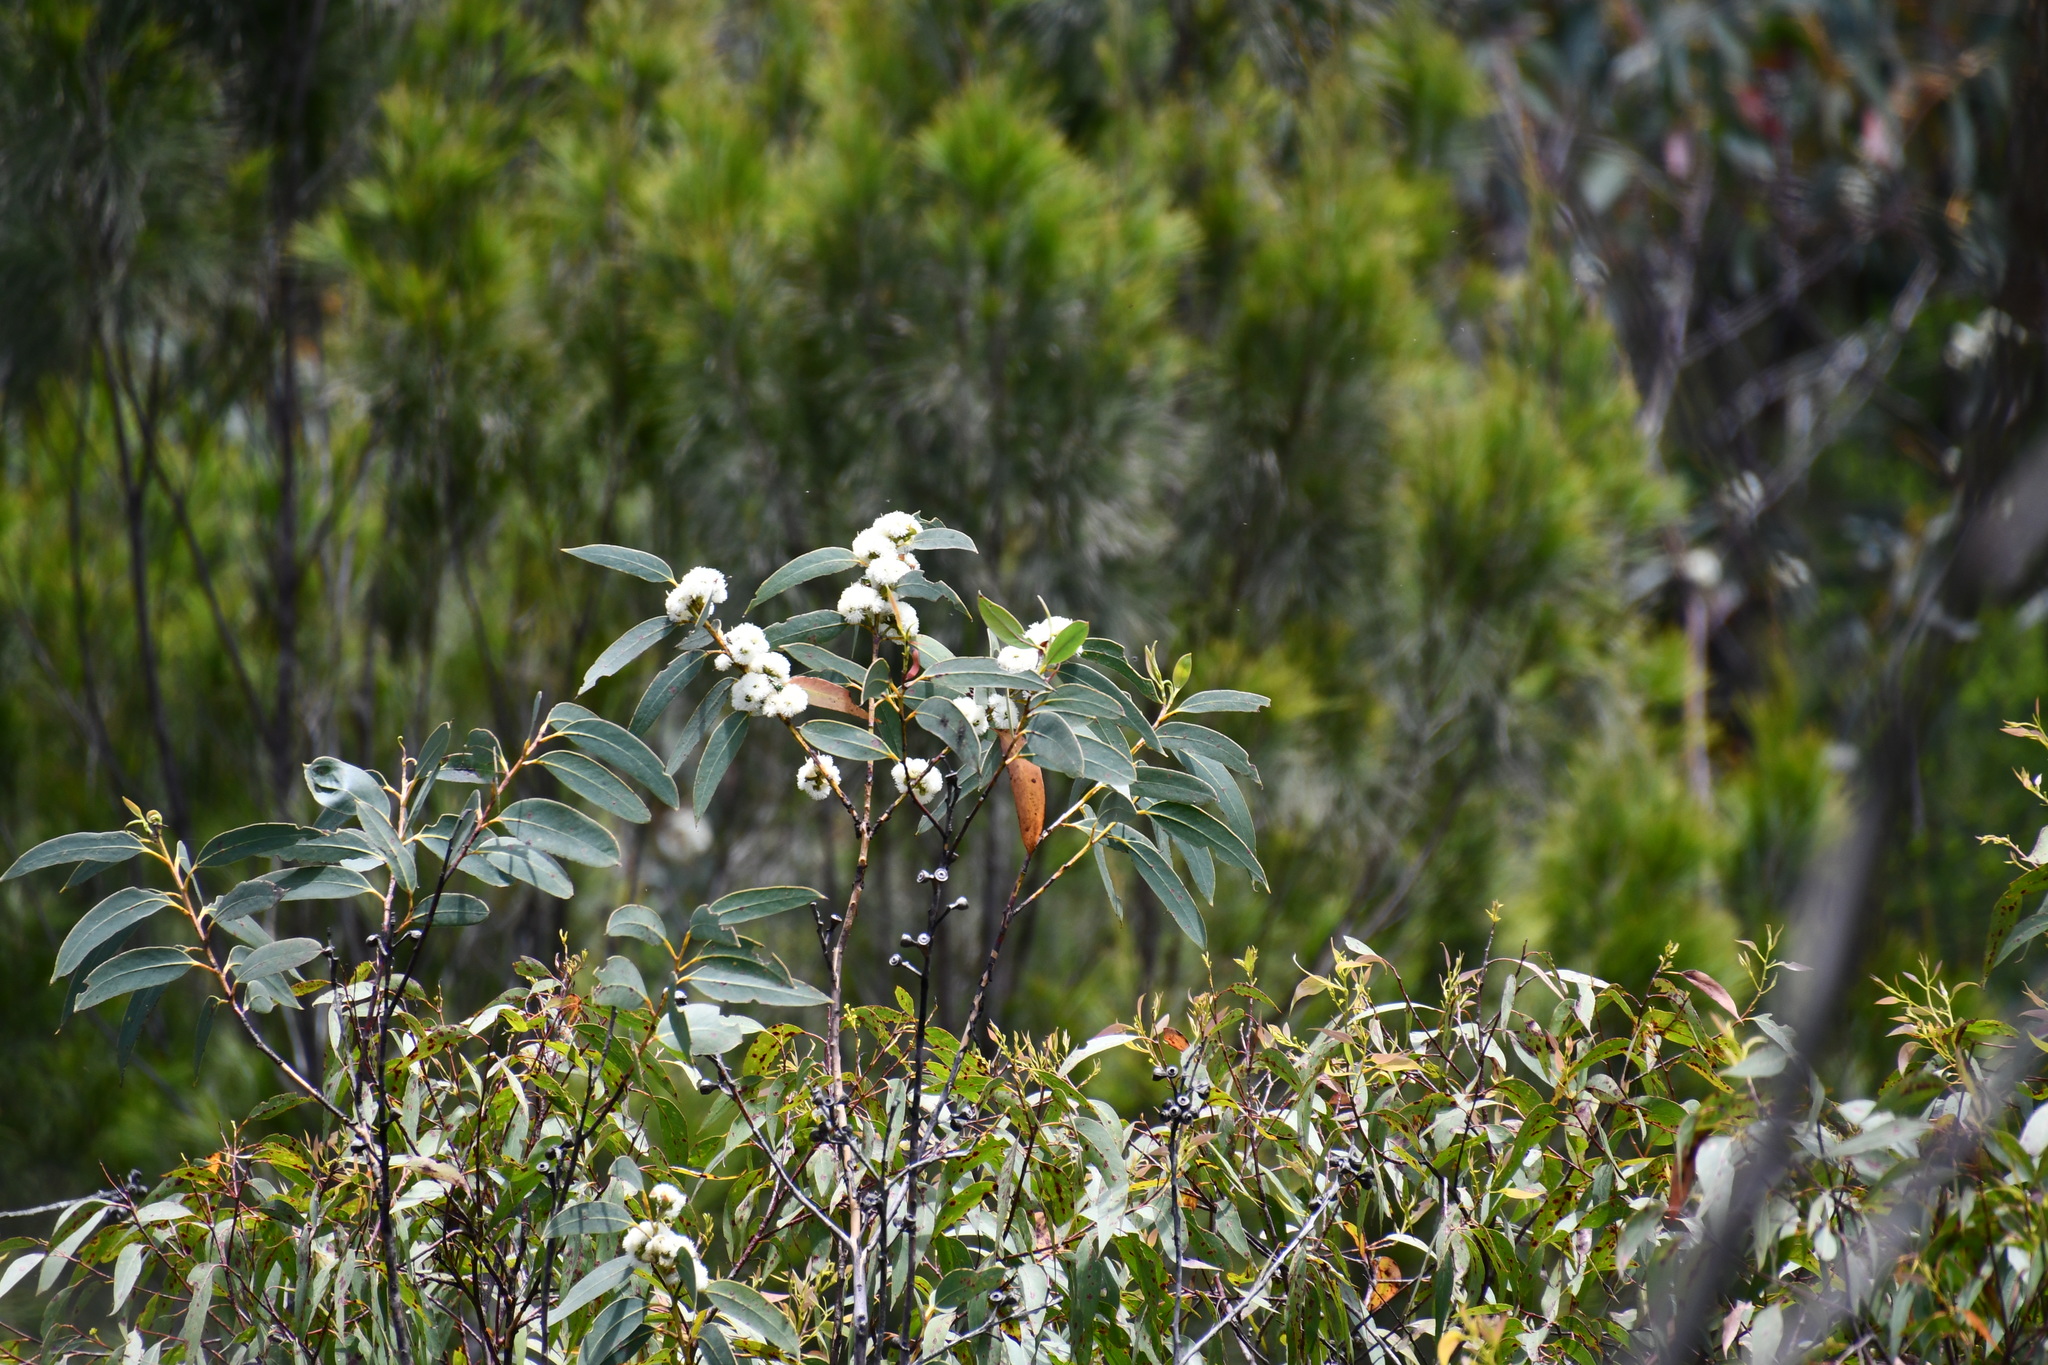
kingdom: Plantae
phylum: Tracheophyta
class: Magnoliopsida
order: Myrtales
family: Myrtaceae
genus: Eucalyptus
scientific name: Eucalyptus luehmanniana
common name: Yellow-top mallee ash
